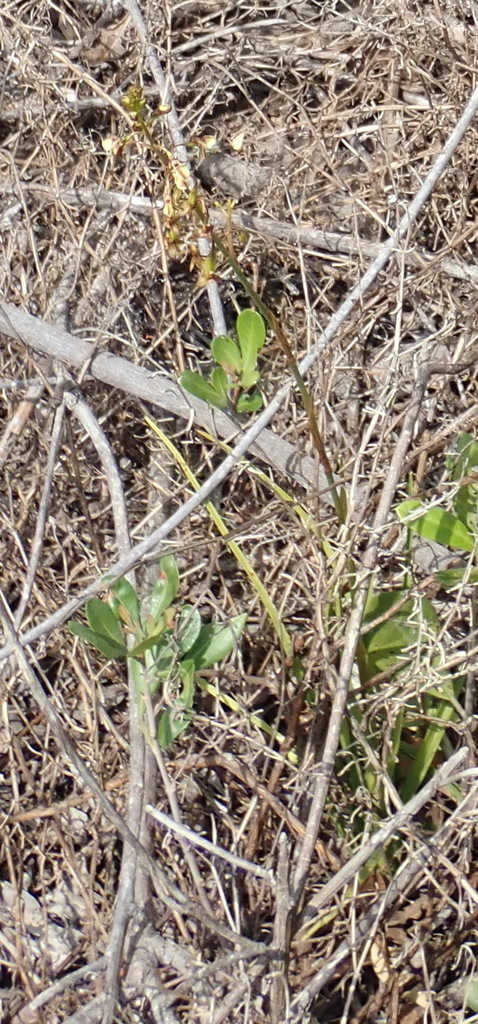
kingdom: Plantae
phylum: Tracheophyta
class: Liliopsida
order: Asparagales
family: Orchidaceae
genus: Eulophia
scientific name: Eulophia cochlearis
